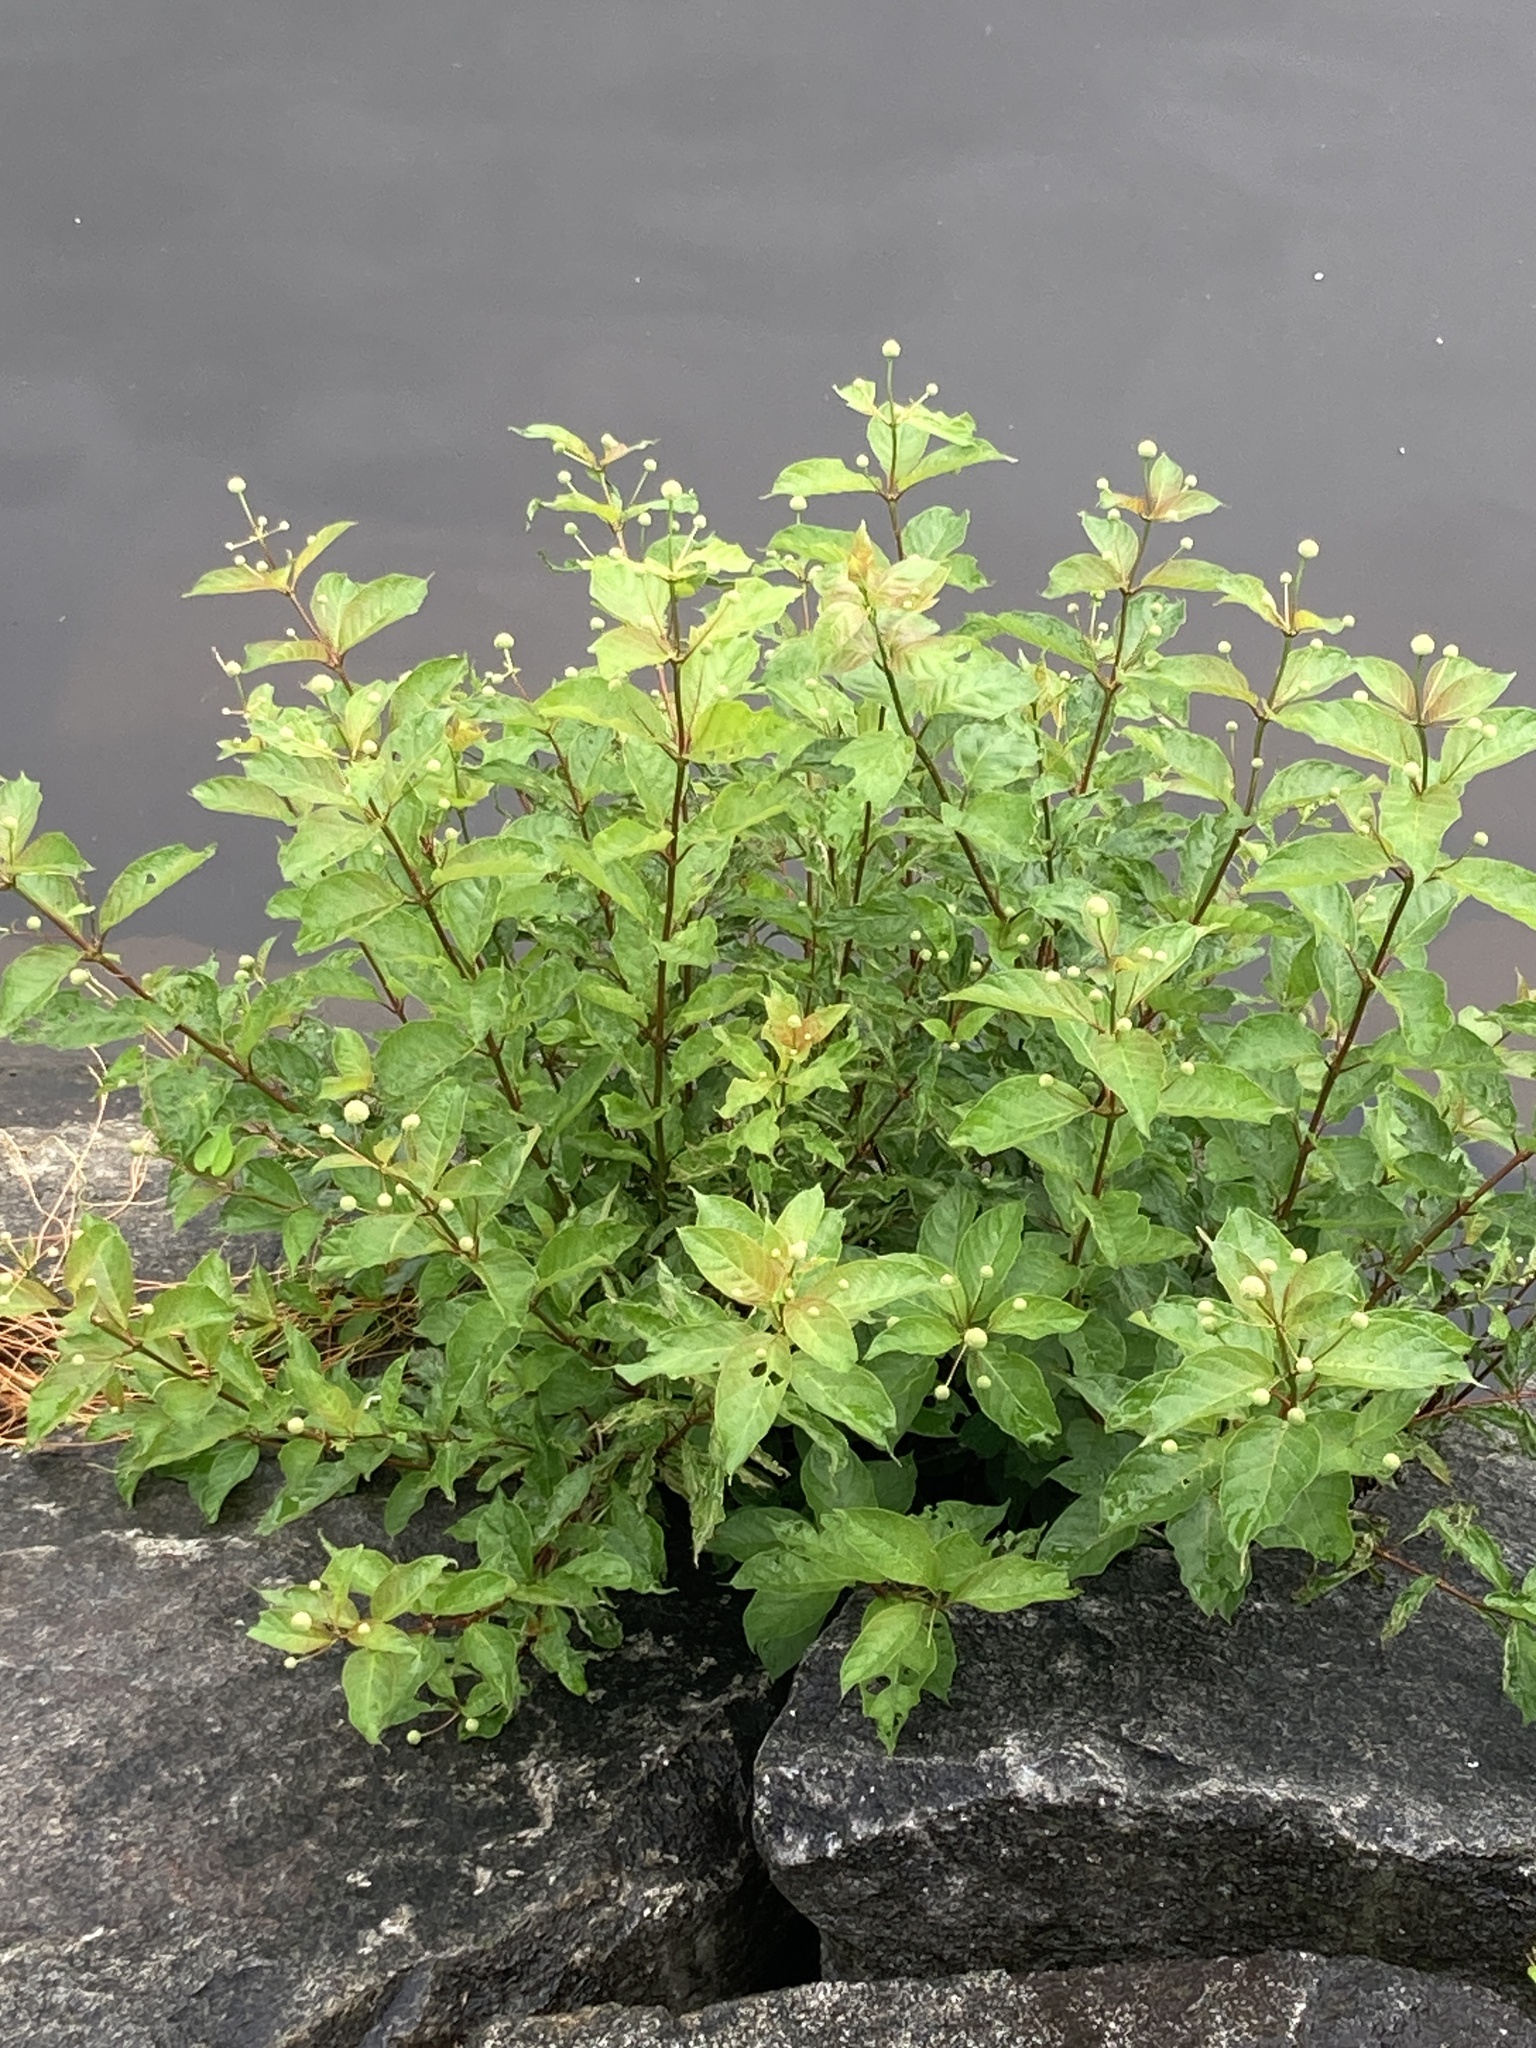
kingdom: Plantae
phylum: Tracheophyta
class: Magnoliopsida
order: Gentianales
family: Rubiaceae
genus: Cephalanthus
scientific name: Cephalanthus occidentalis
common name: Button-willow
